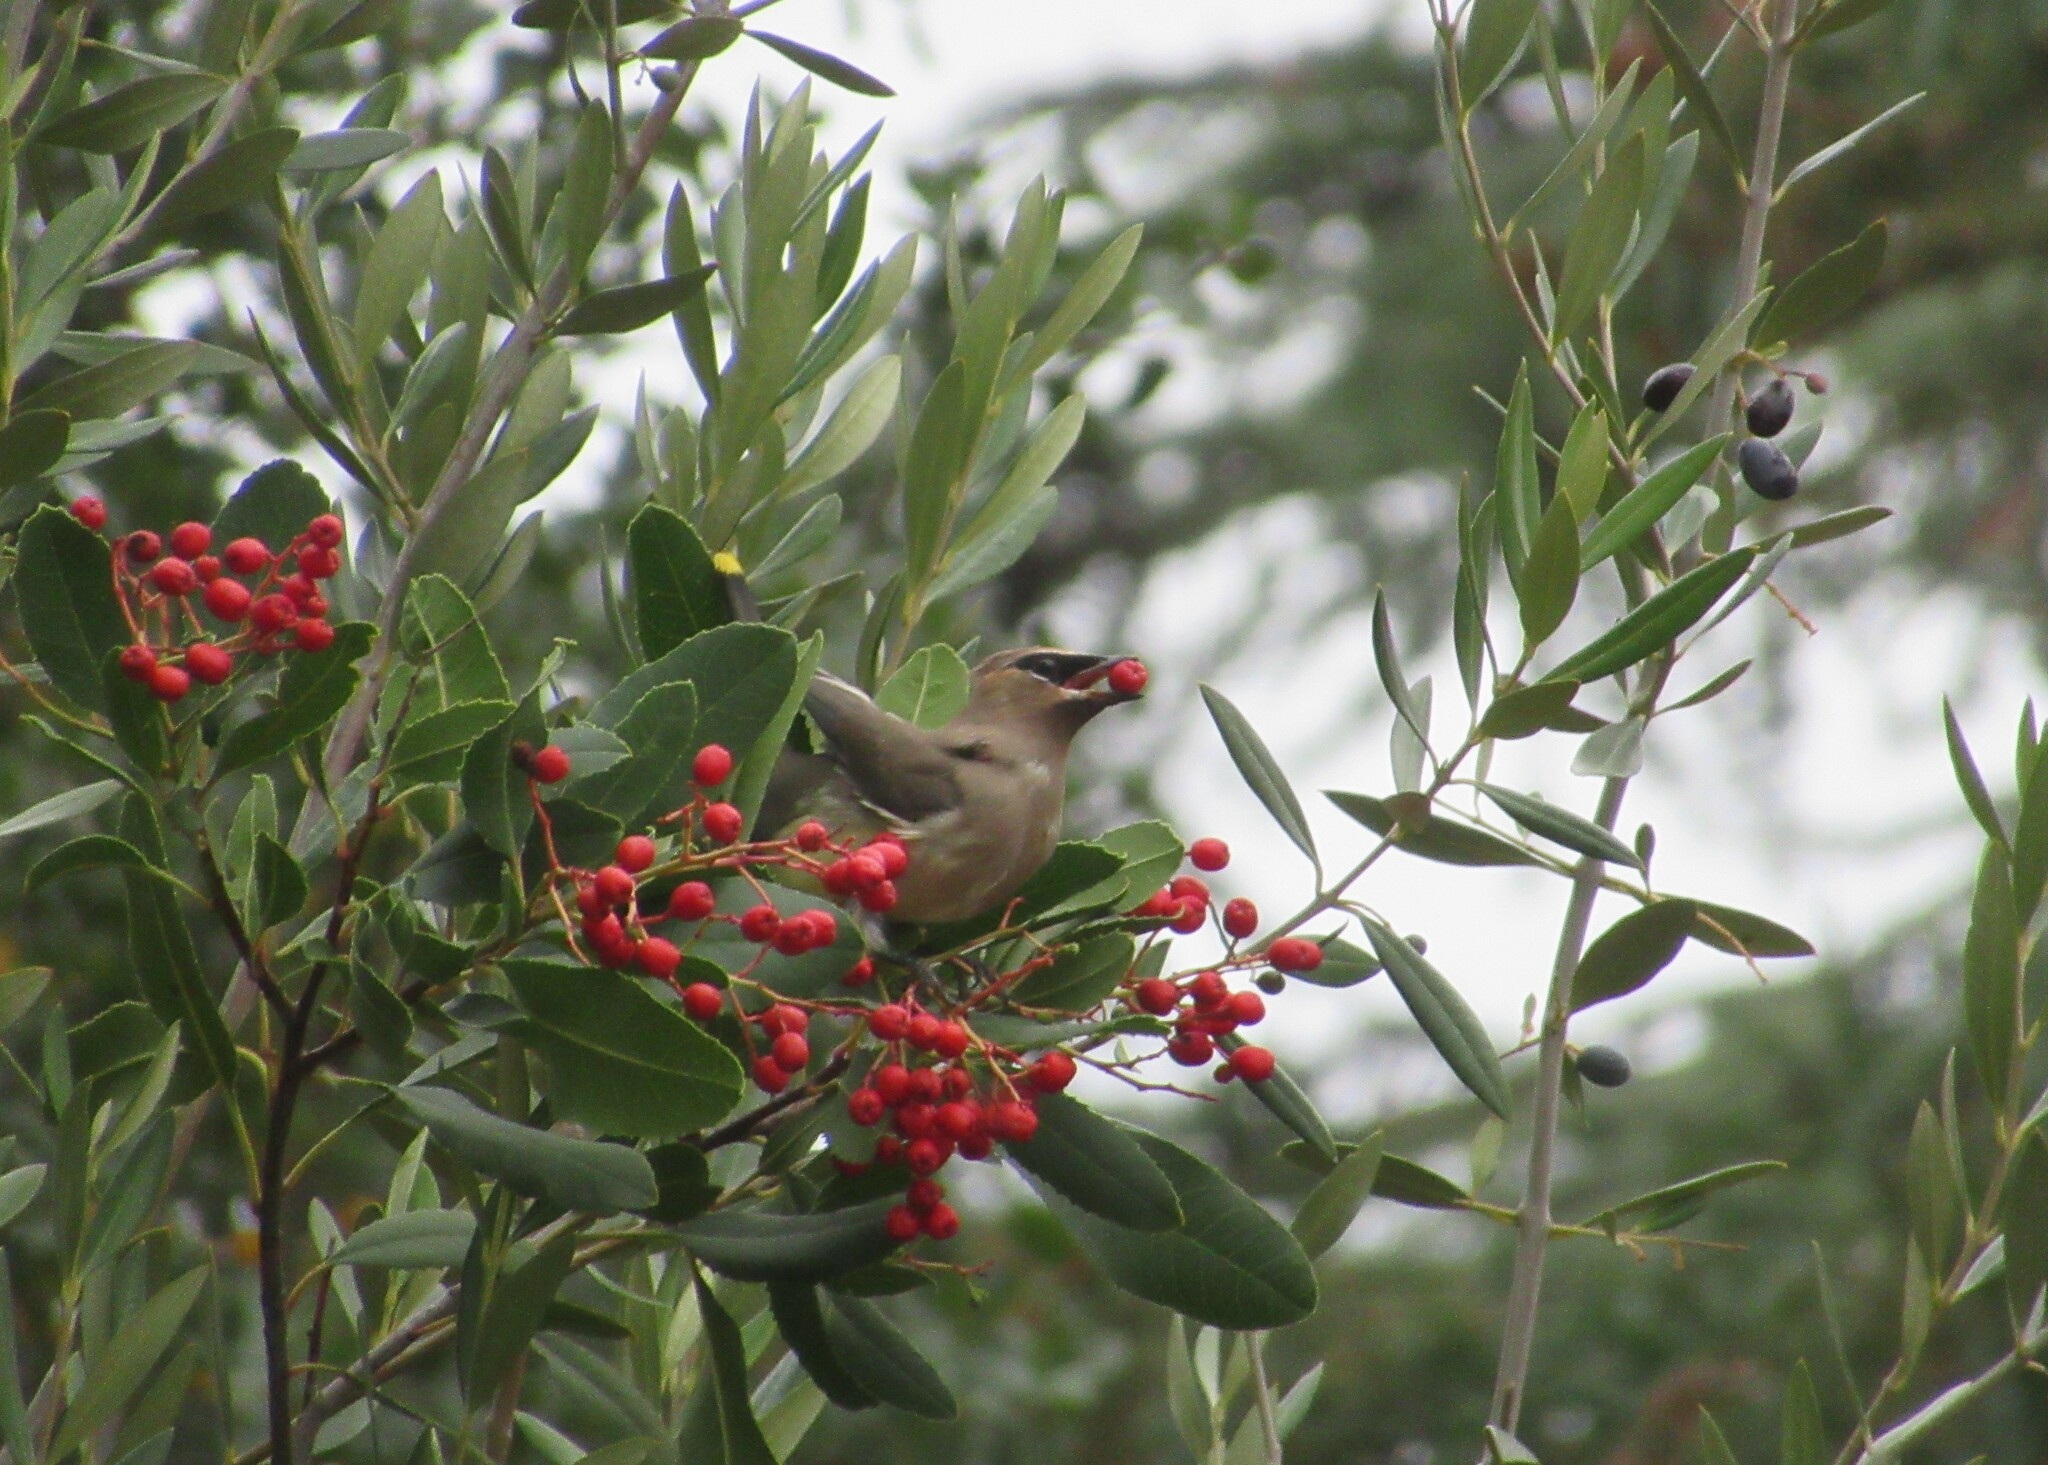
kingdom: Animalia
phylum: Chordata
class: Aves
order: Passeriformes
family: Bombycillidae
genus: Bombycilla
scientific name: Bombycilla cedrorum
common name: Cedar waxwing
